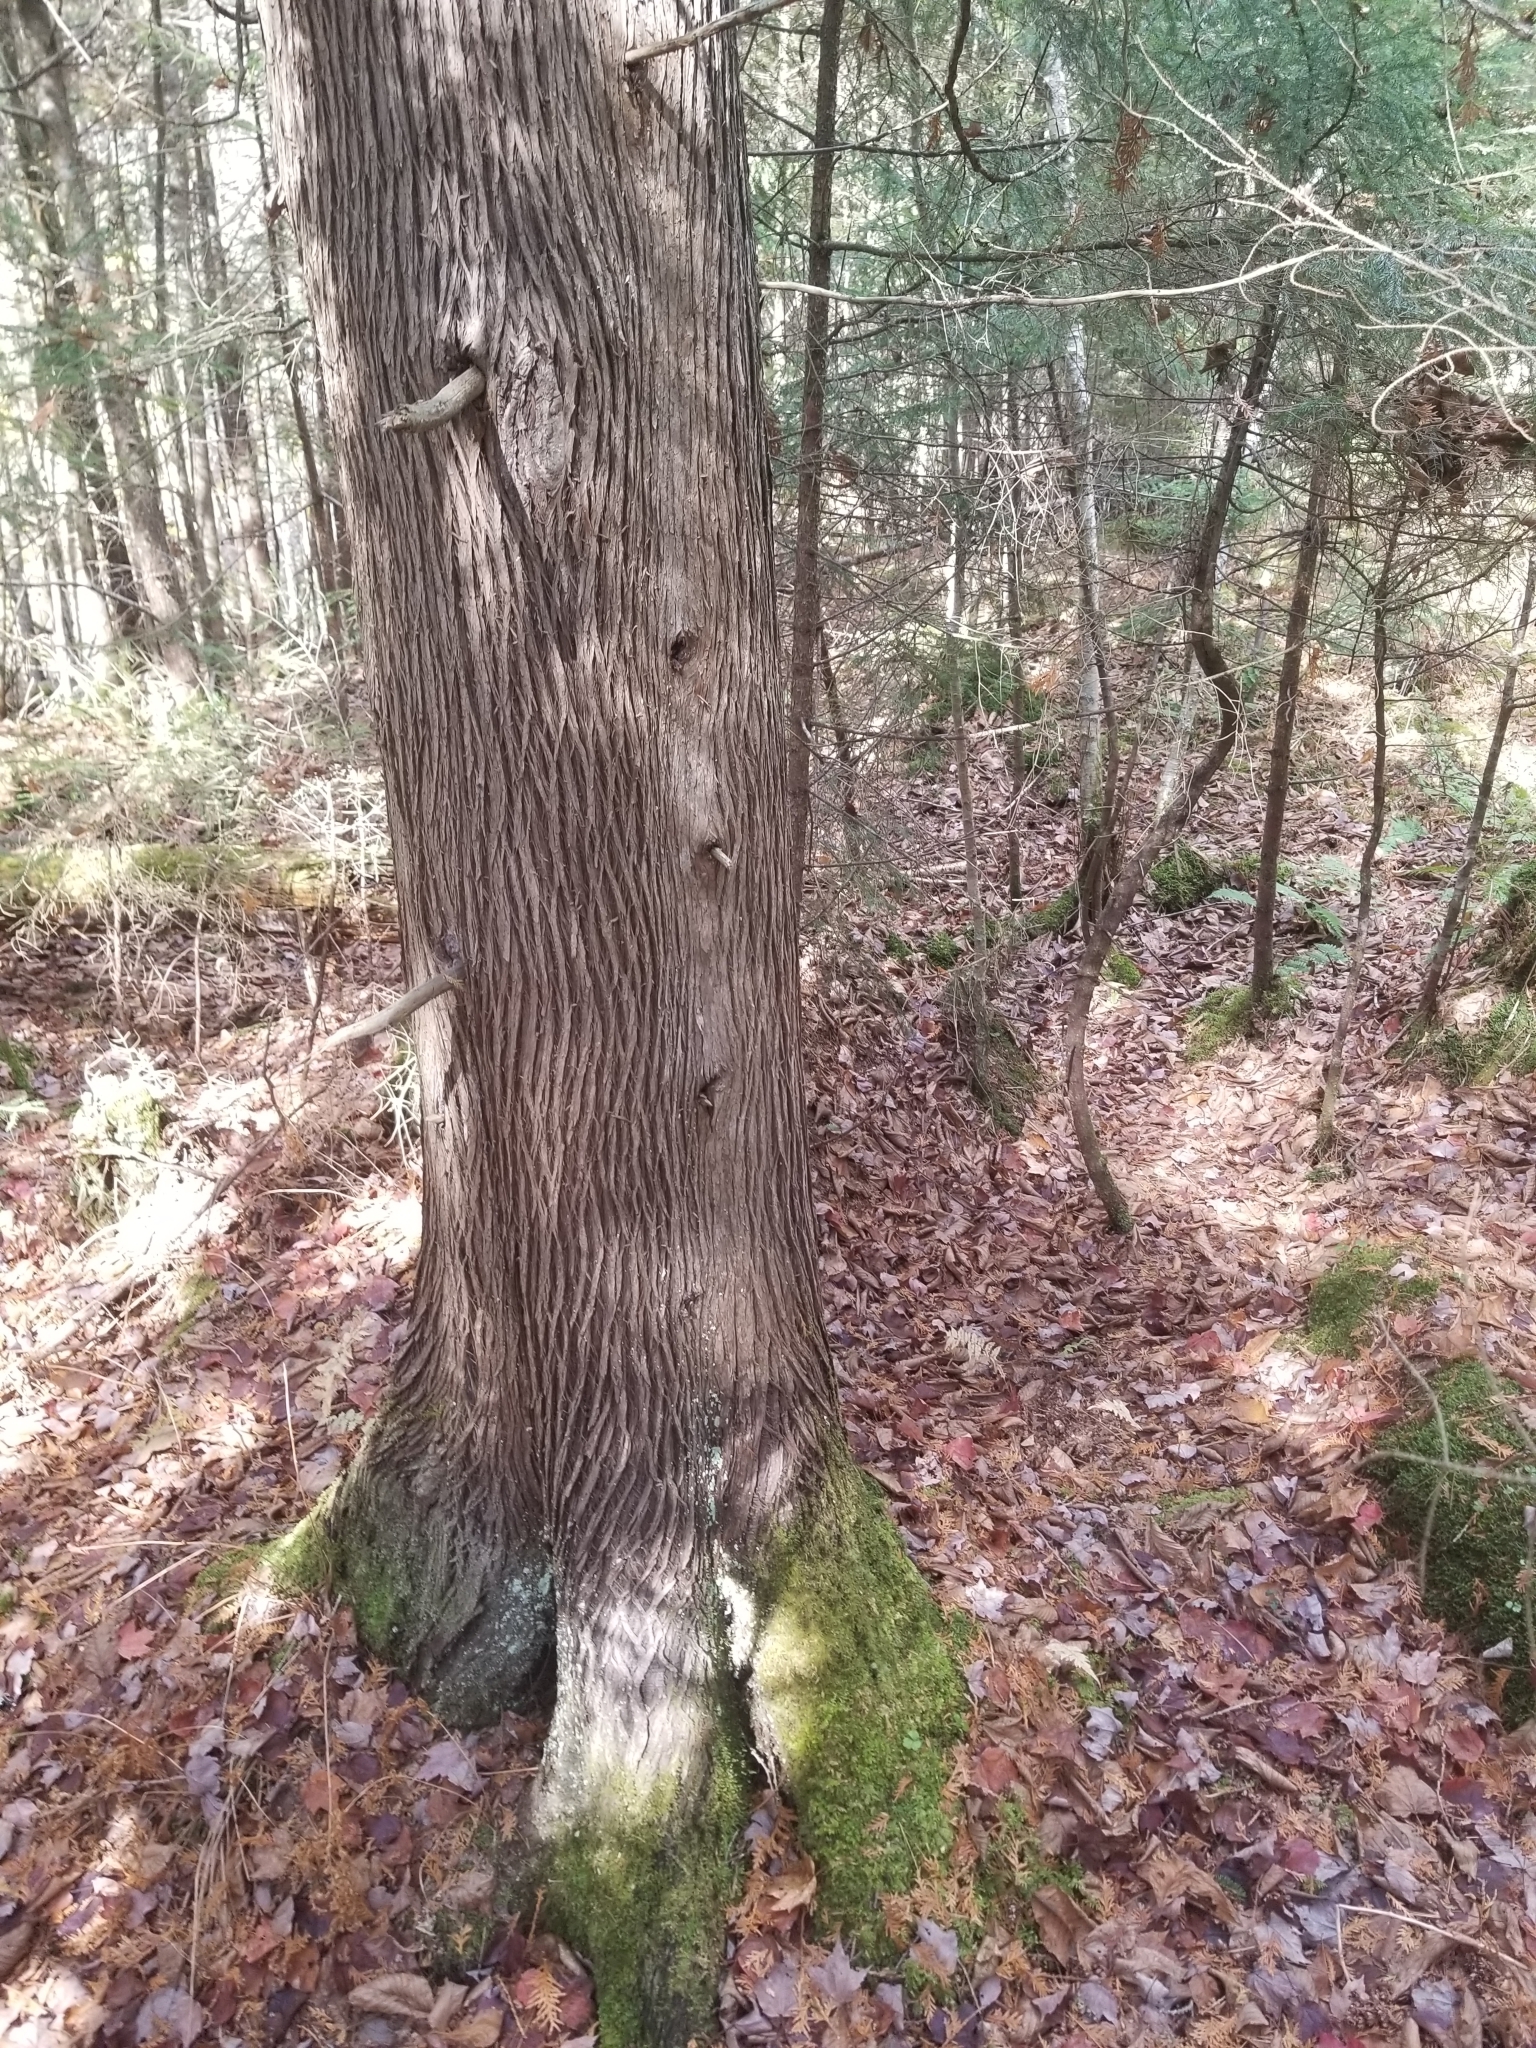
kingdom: Plantae
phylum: Tracheophyta
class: Pinopsida
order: Pinales
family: Cupressaceae
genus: Thuja
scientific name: Thuja occidentalis
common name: Northern white-cedar
